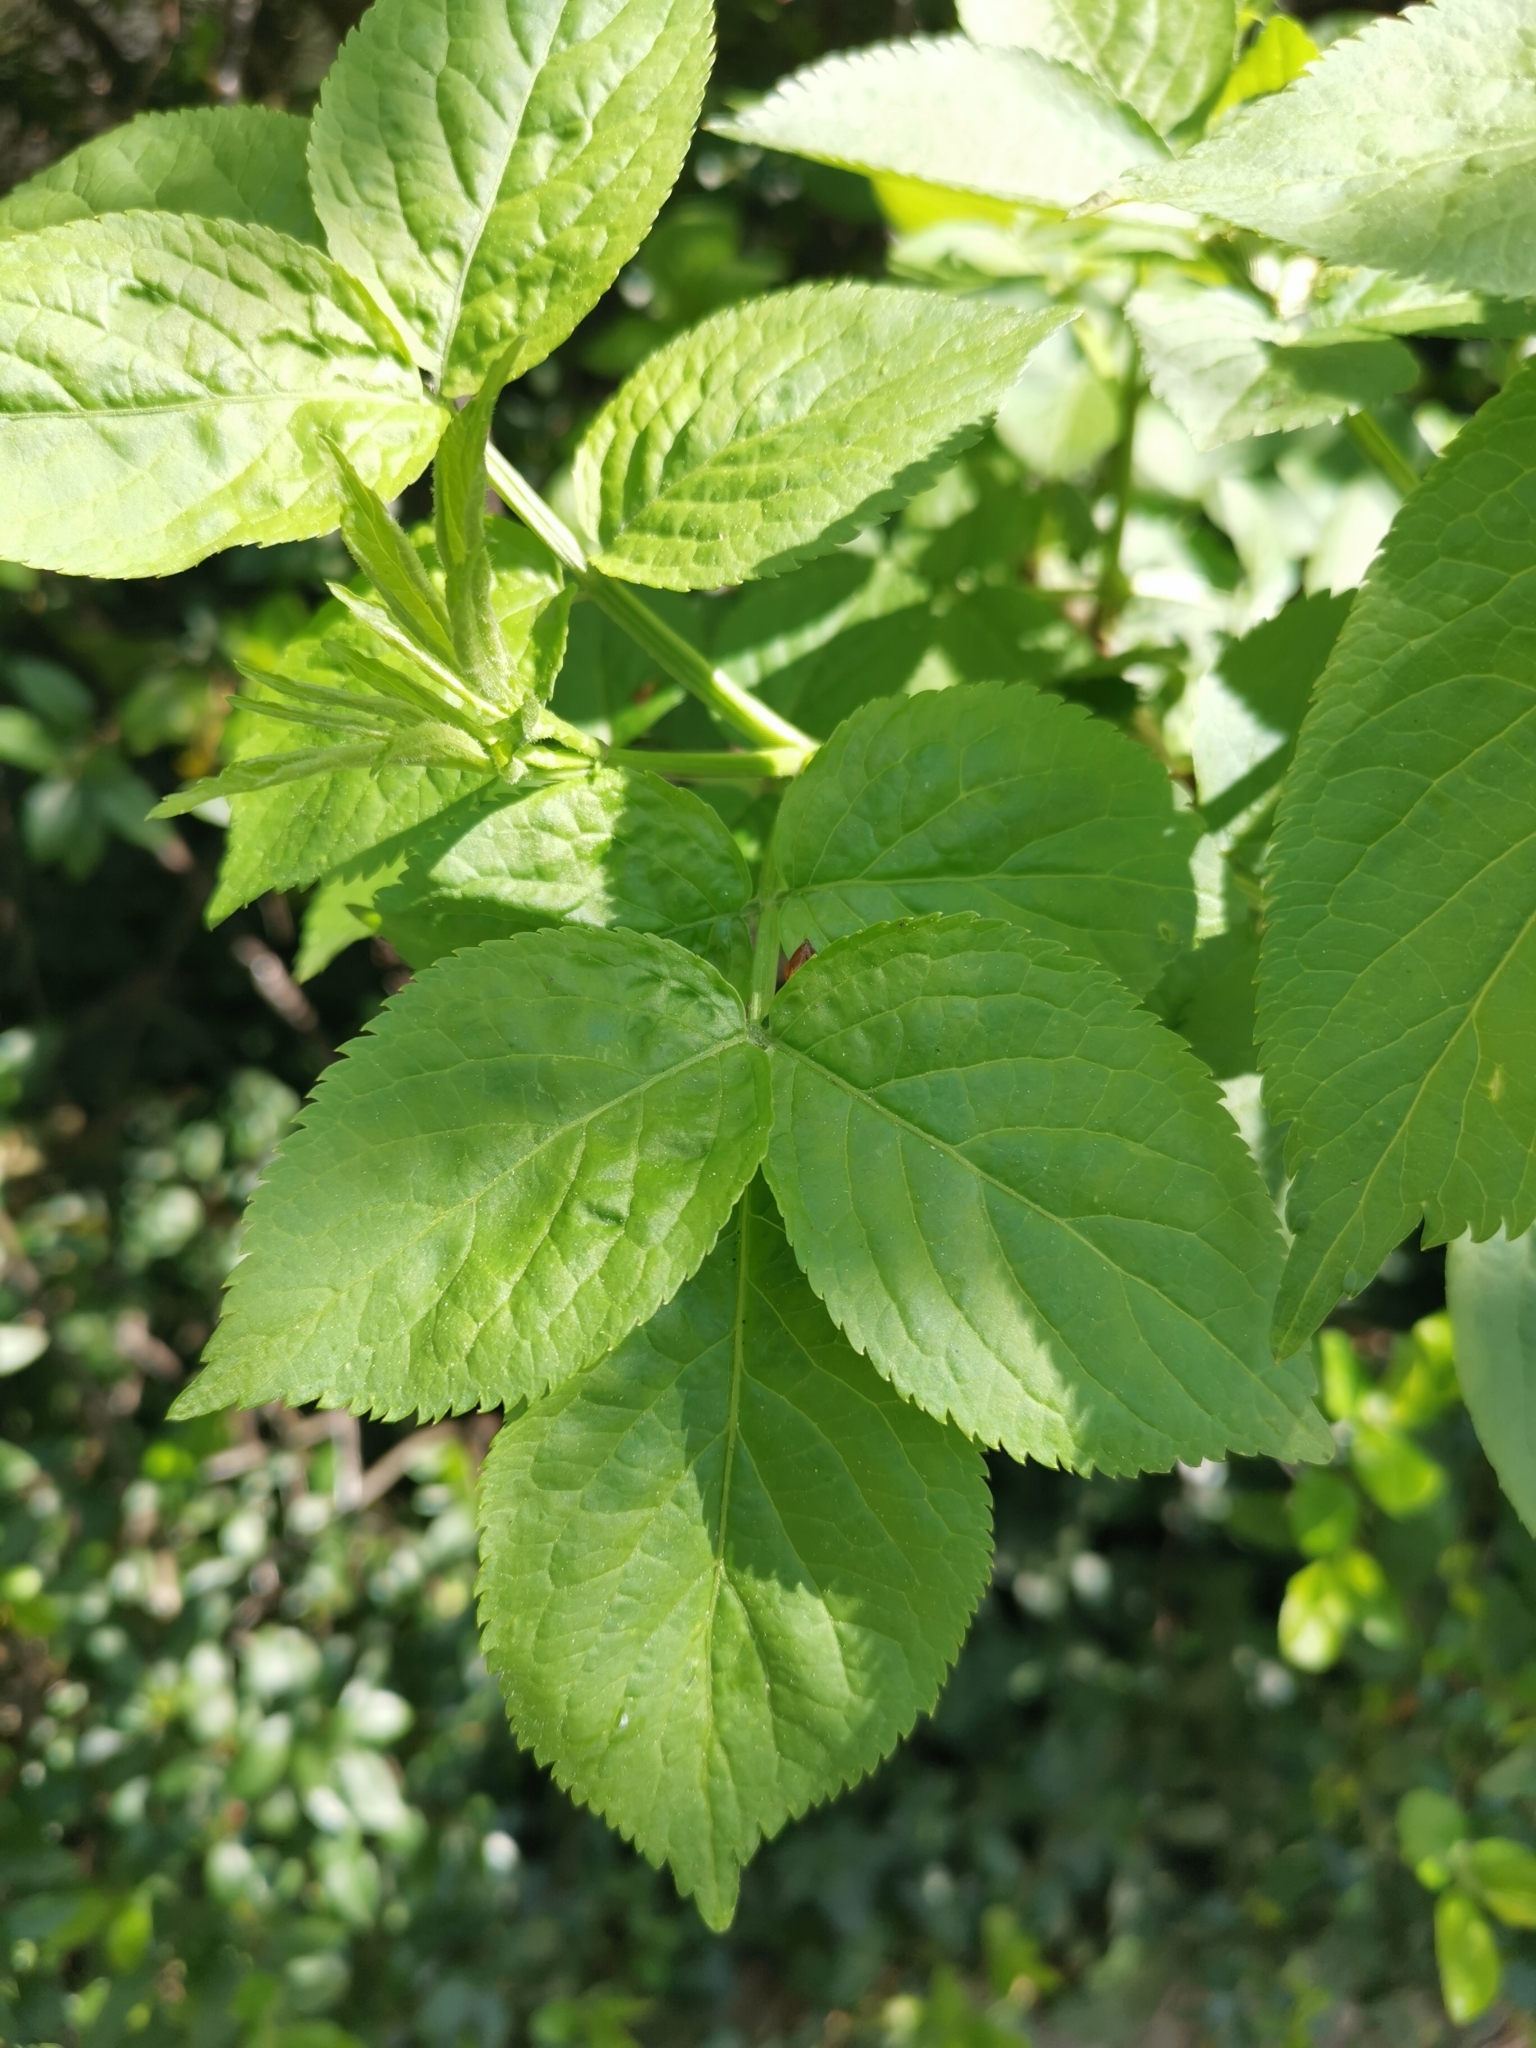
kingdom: Plantae
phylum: Tracheophyta
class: Magnoliopsida
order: Dipsacales
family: Viburnaceae
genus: Sambucus
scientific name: Sambucus nigra
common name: Elder
